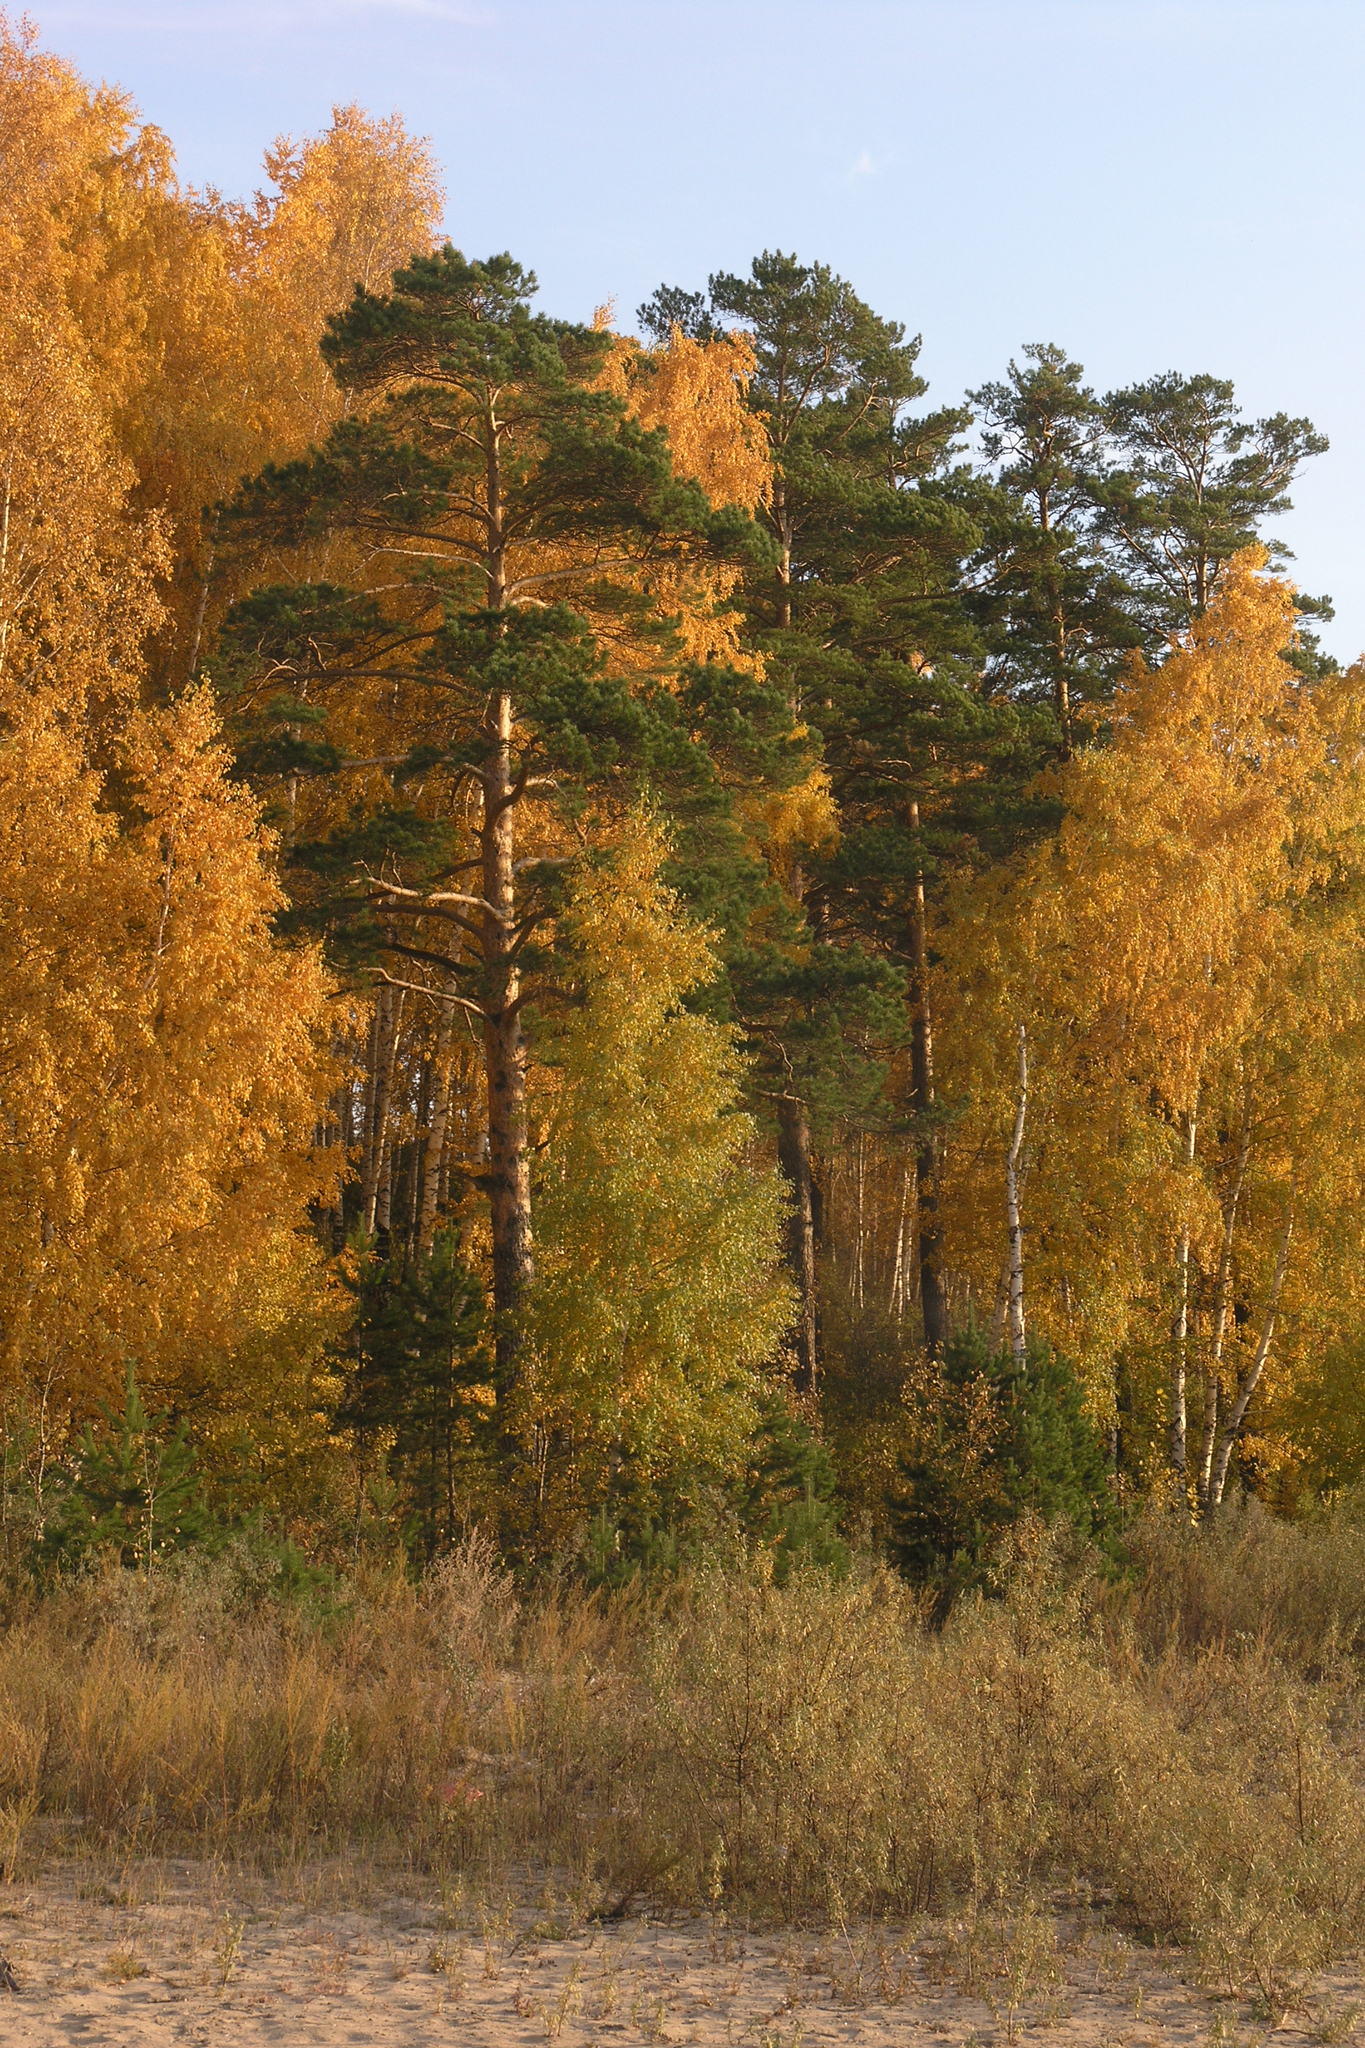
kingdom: Plantae
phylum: Tracheophyta
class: Pinopsida
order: Pinales
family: Pinaceae
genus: Pinus
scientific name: Pinus sylvestris
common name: Scots pine
